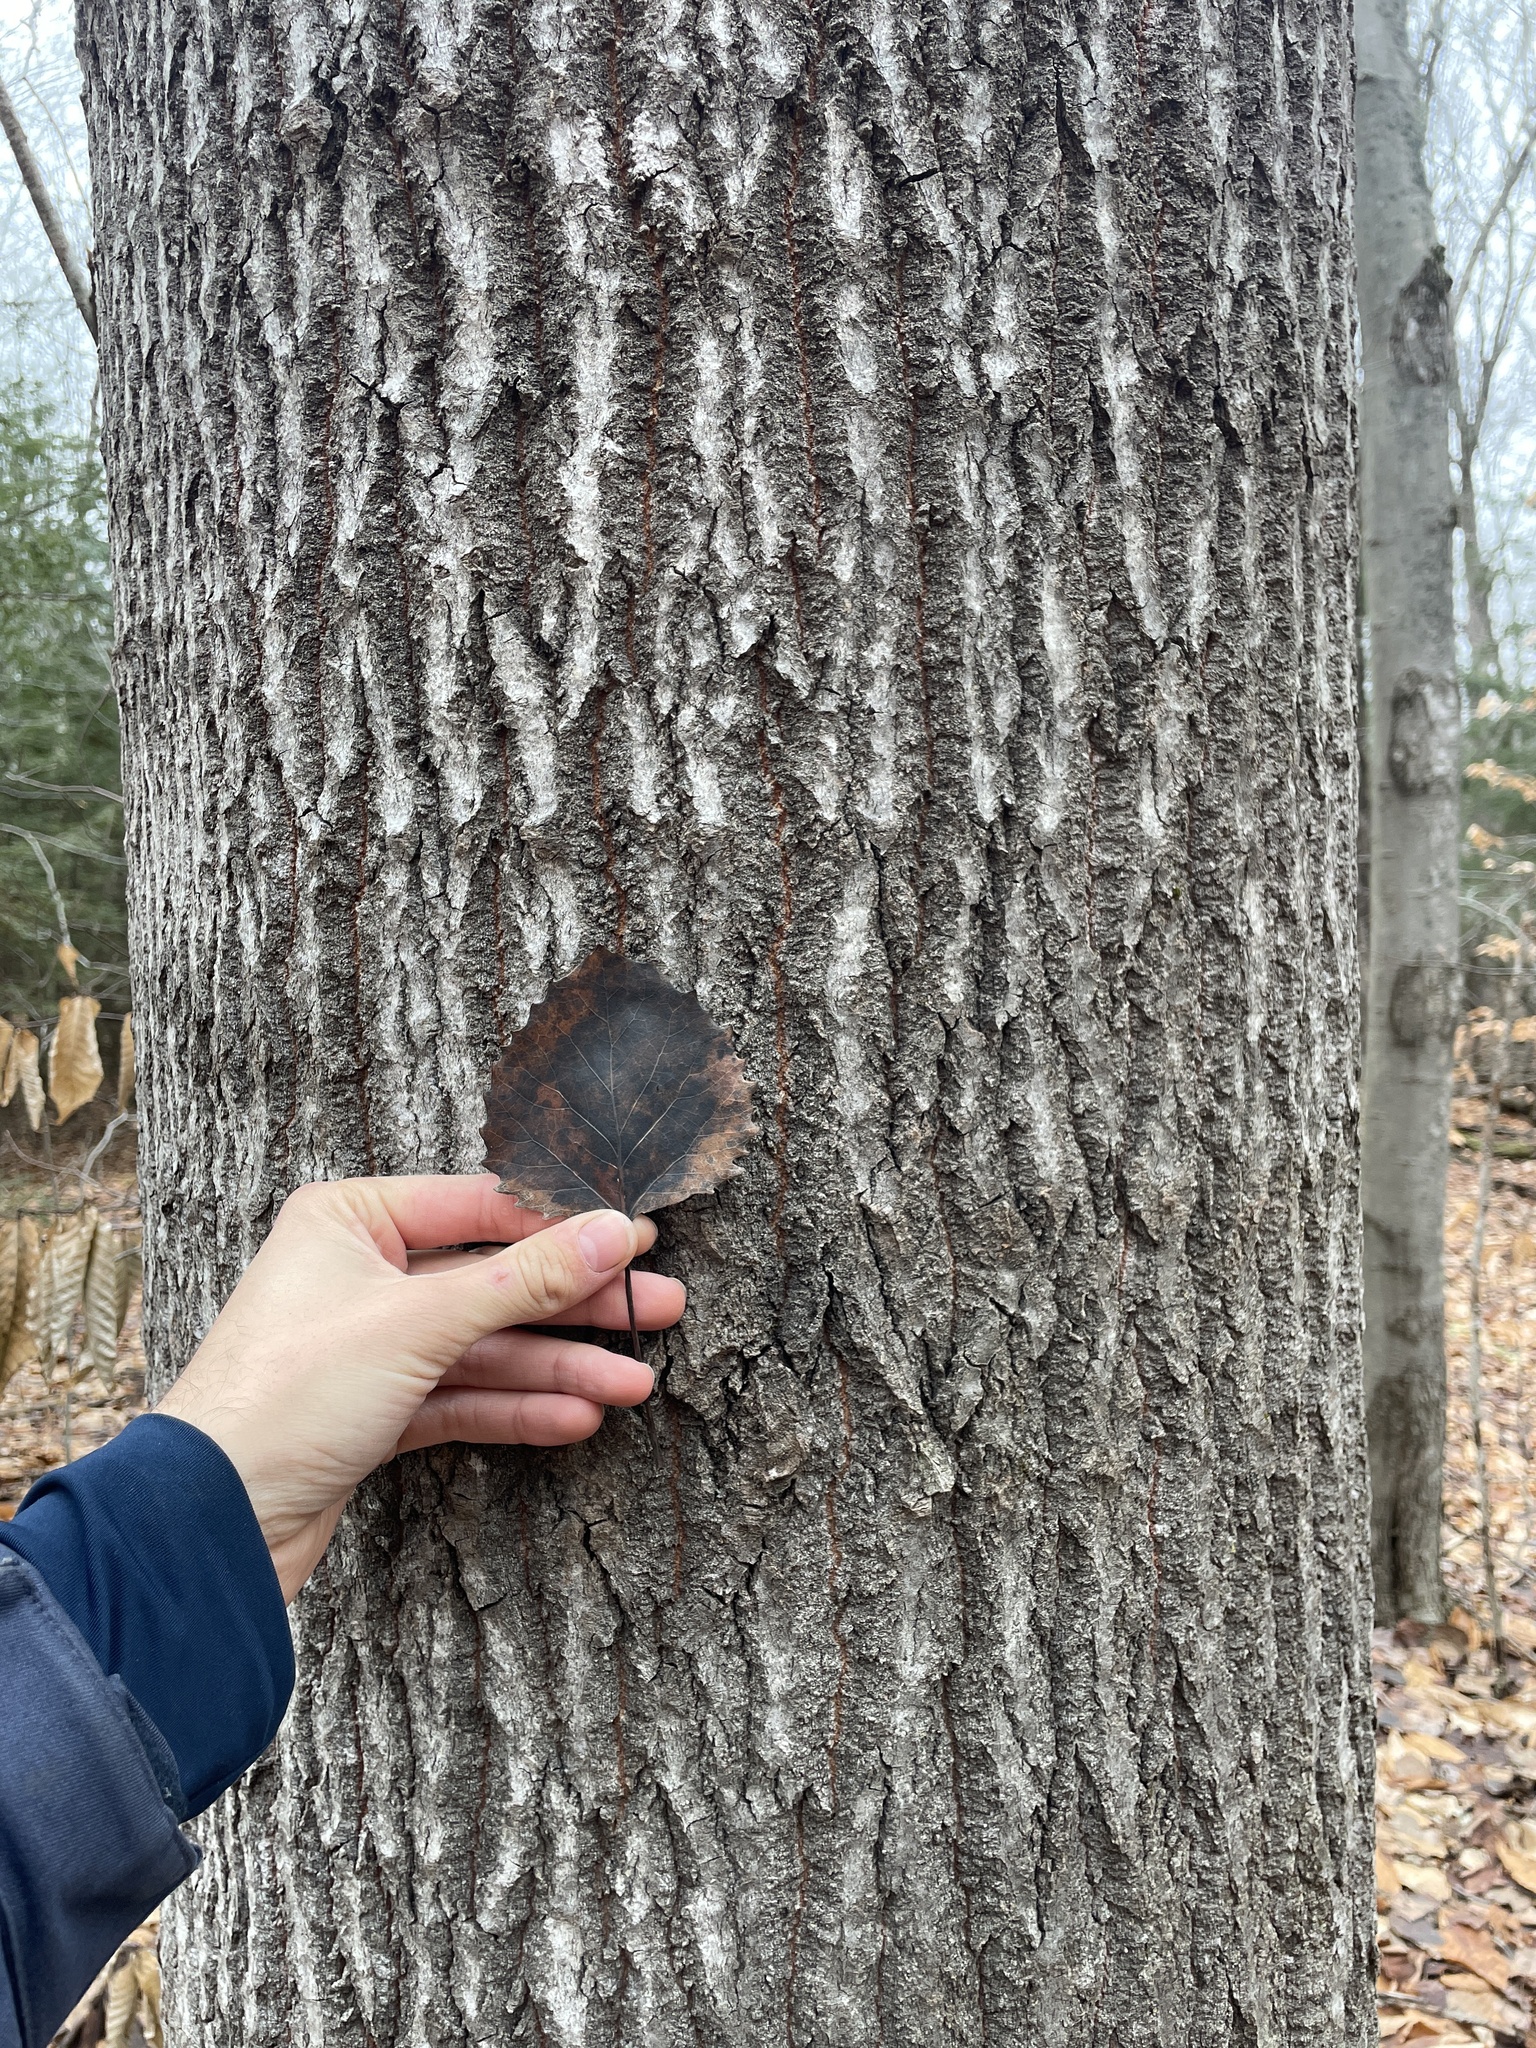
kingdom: Plantae
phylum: Tracheophyta
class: Magnoliopsida
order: Malpighiales
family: Salicaceae
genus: Populus
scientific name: Populus grandidentata
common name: Bigtooth aspen
